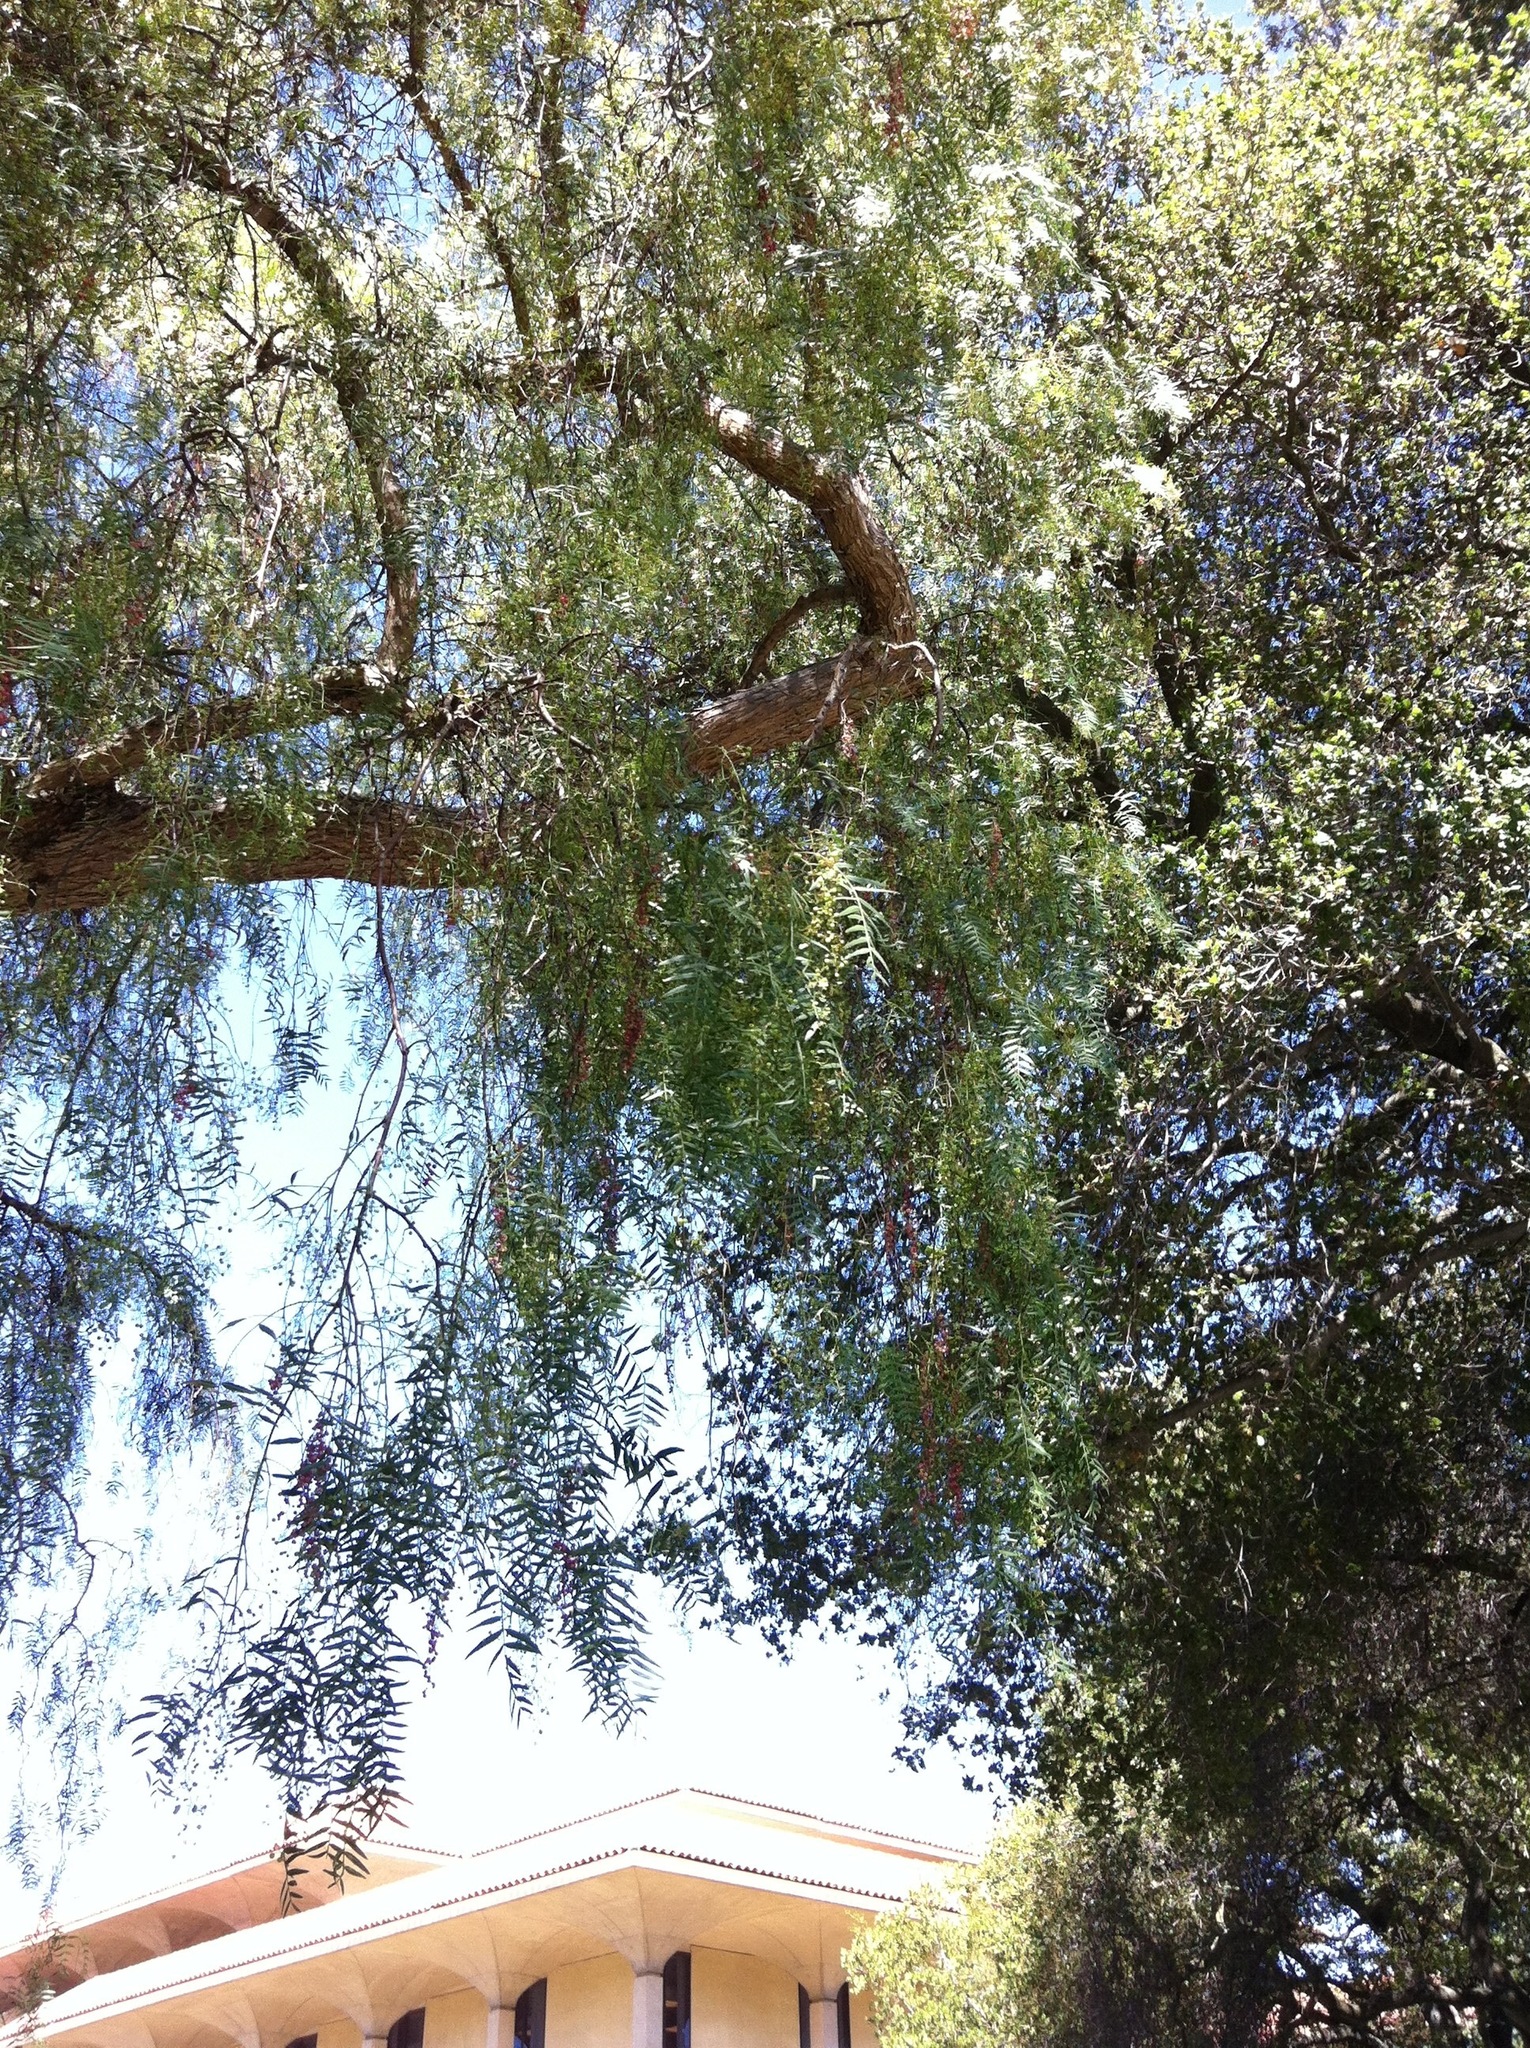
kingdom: Plantae
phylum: Tracheophyta
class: Magnoliopsida
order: Sapindales
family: Anacardiaceae
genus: Schinus
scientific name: Schinus molle
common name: Peruvian peppertree
